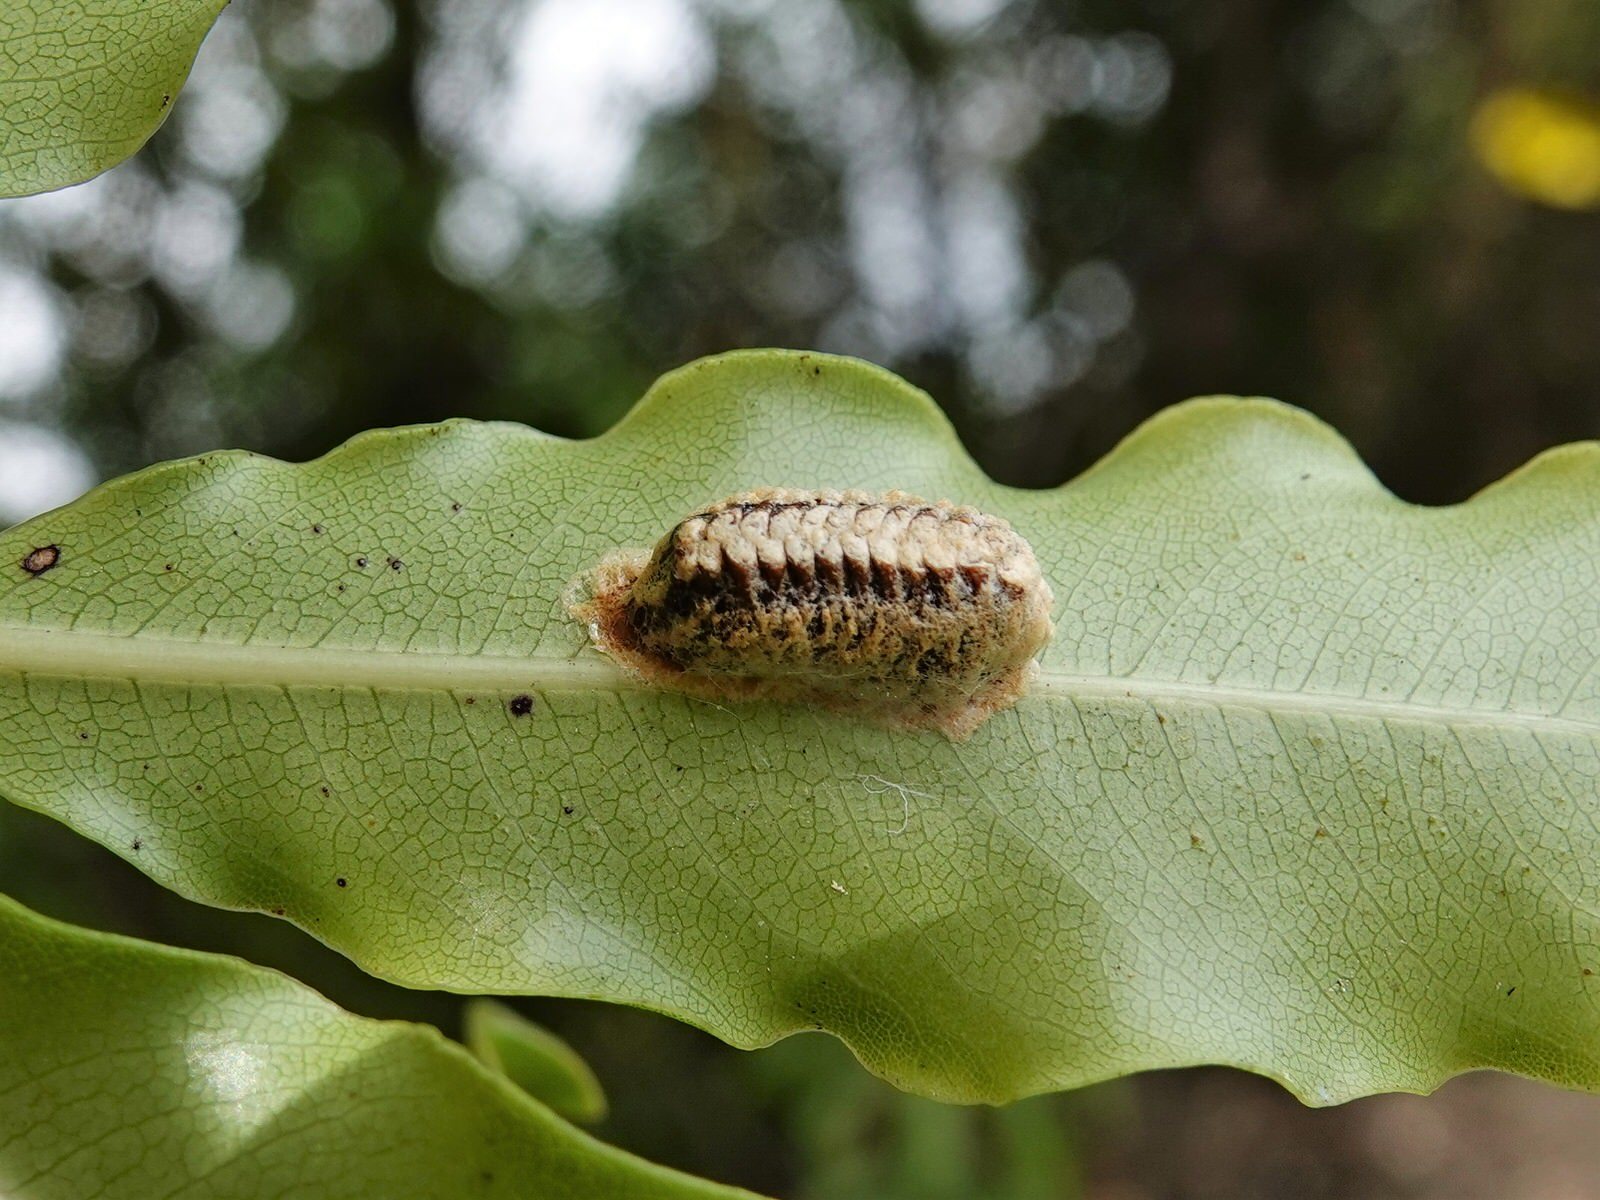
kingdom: Animalia
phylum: Arthropoda
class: Insecta
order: Mantodea
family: Mantidae
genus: Orthodera
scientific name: Orthodera novaezealandiae
